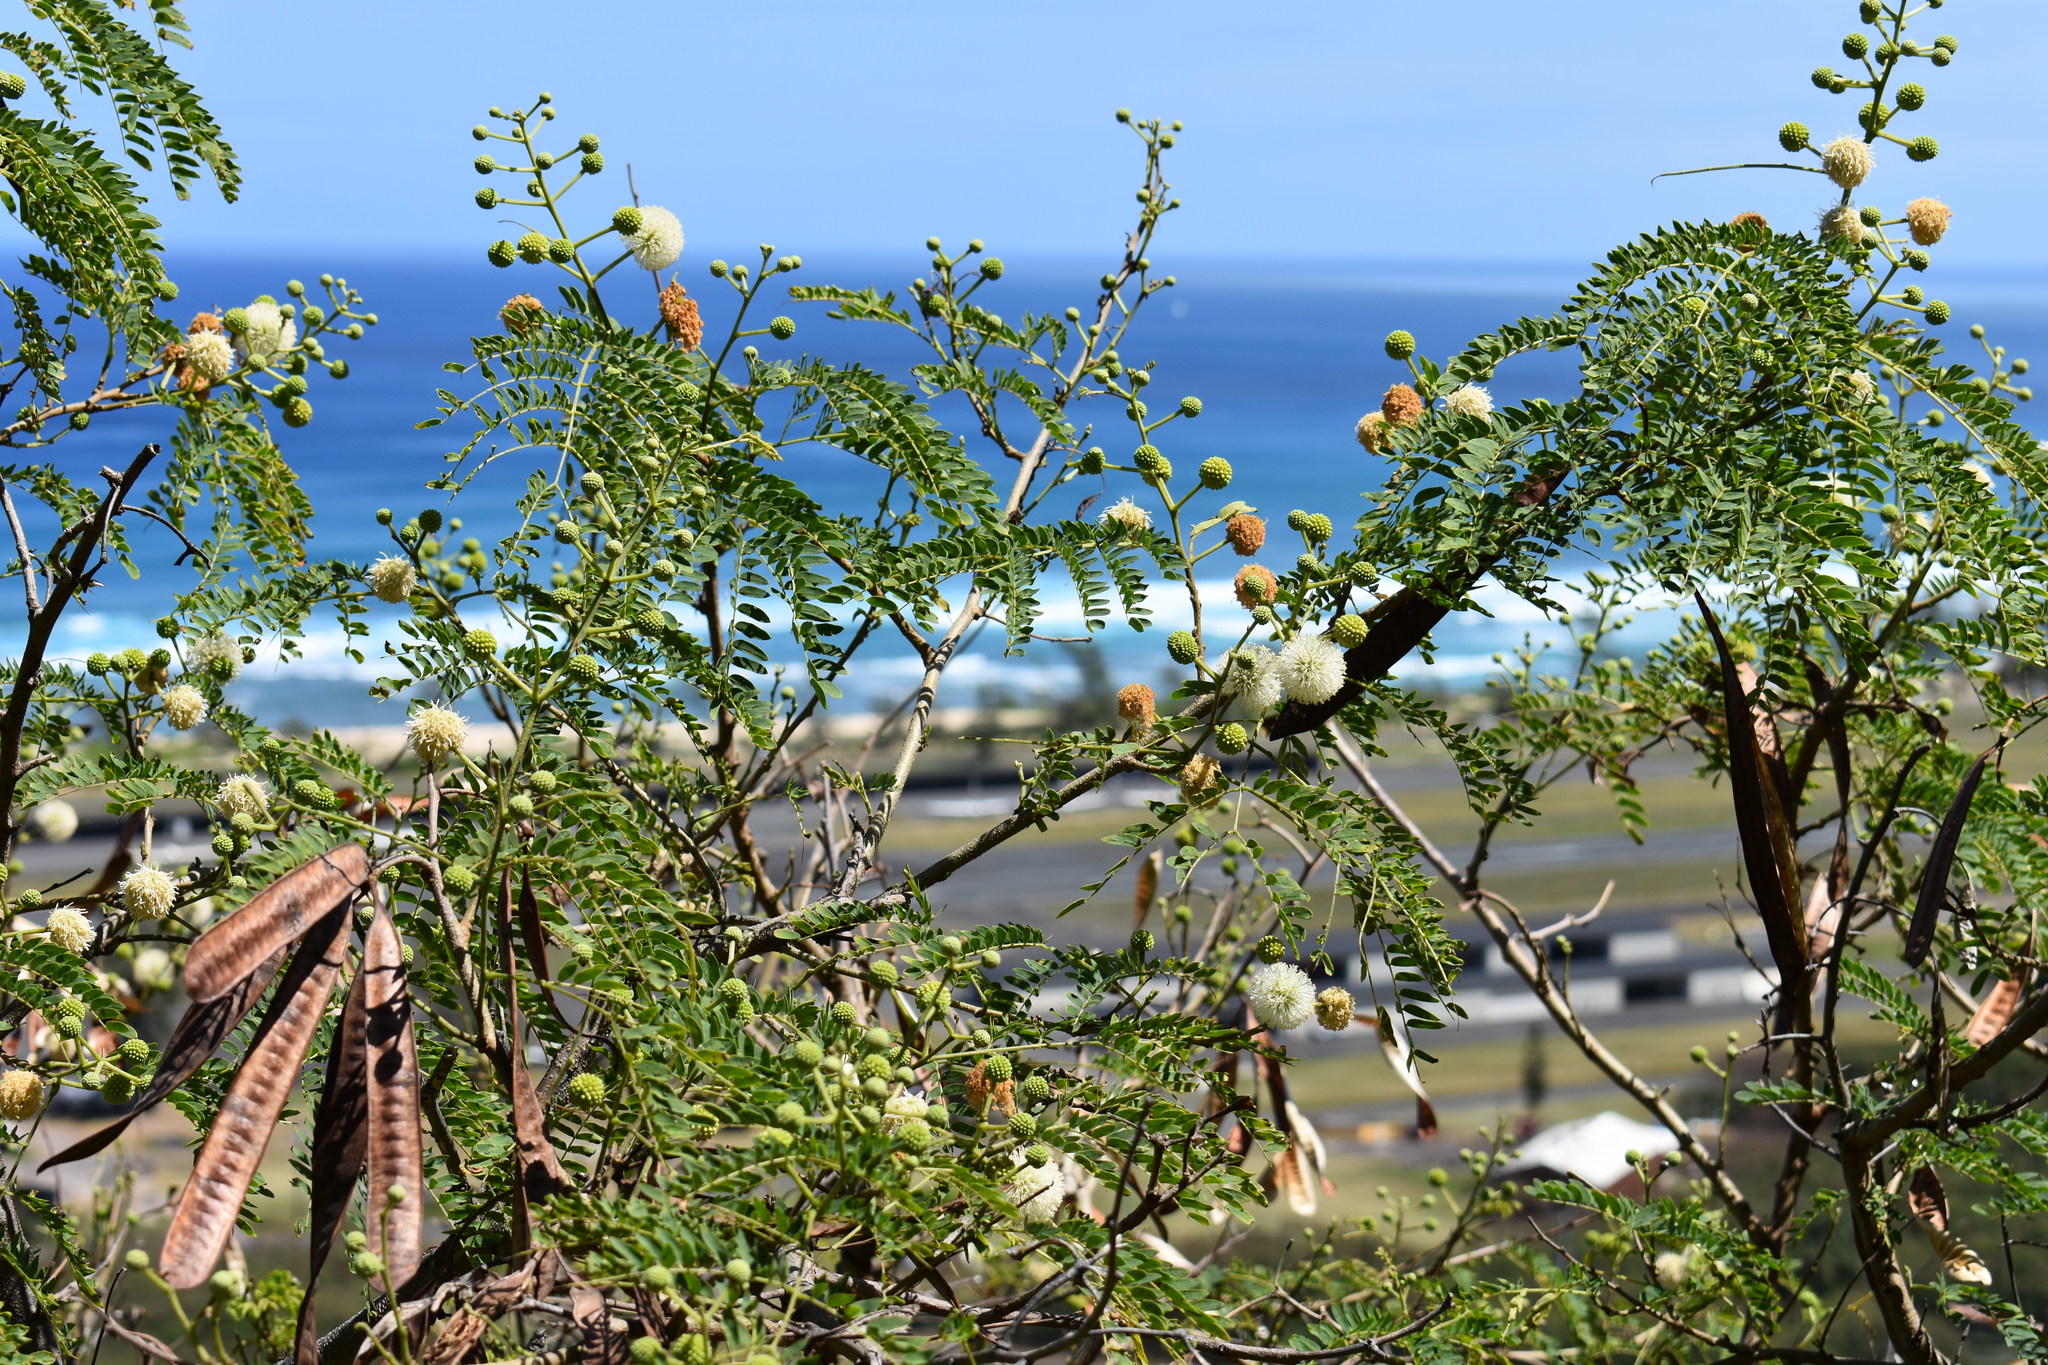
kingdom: Plantae
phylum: Tracheophyta
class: Magnoliopsida
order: Fabales
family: Fabaceae
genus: Leucaena
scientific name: Leucaena leucocephala
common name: White leadtree
